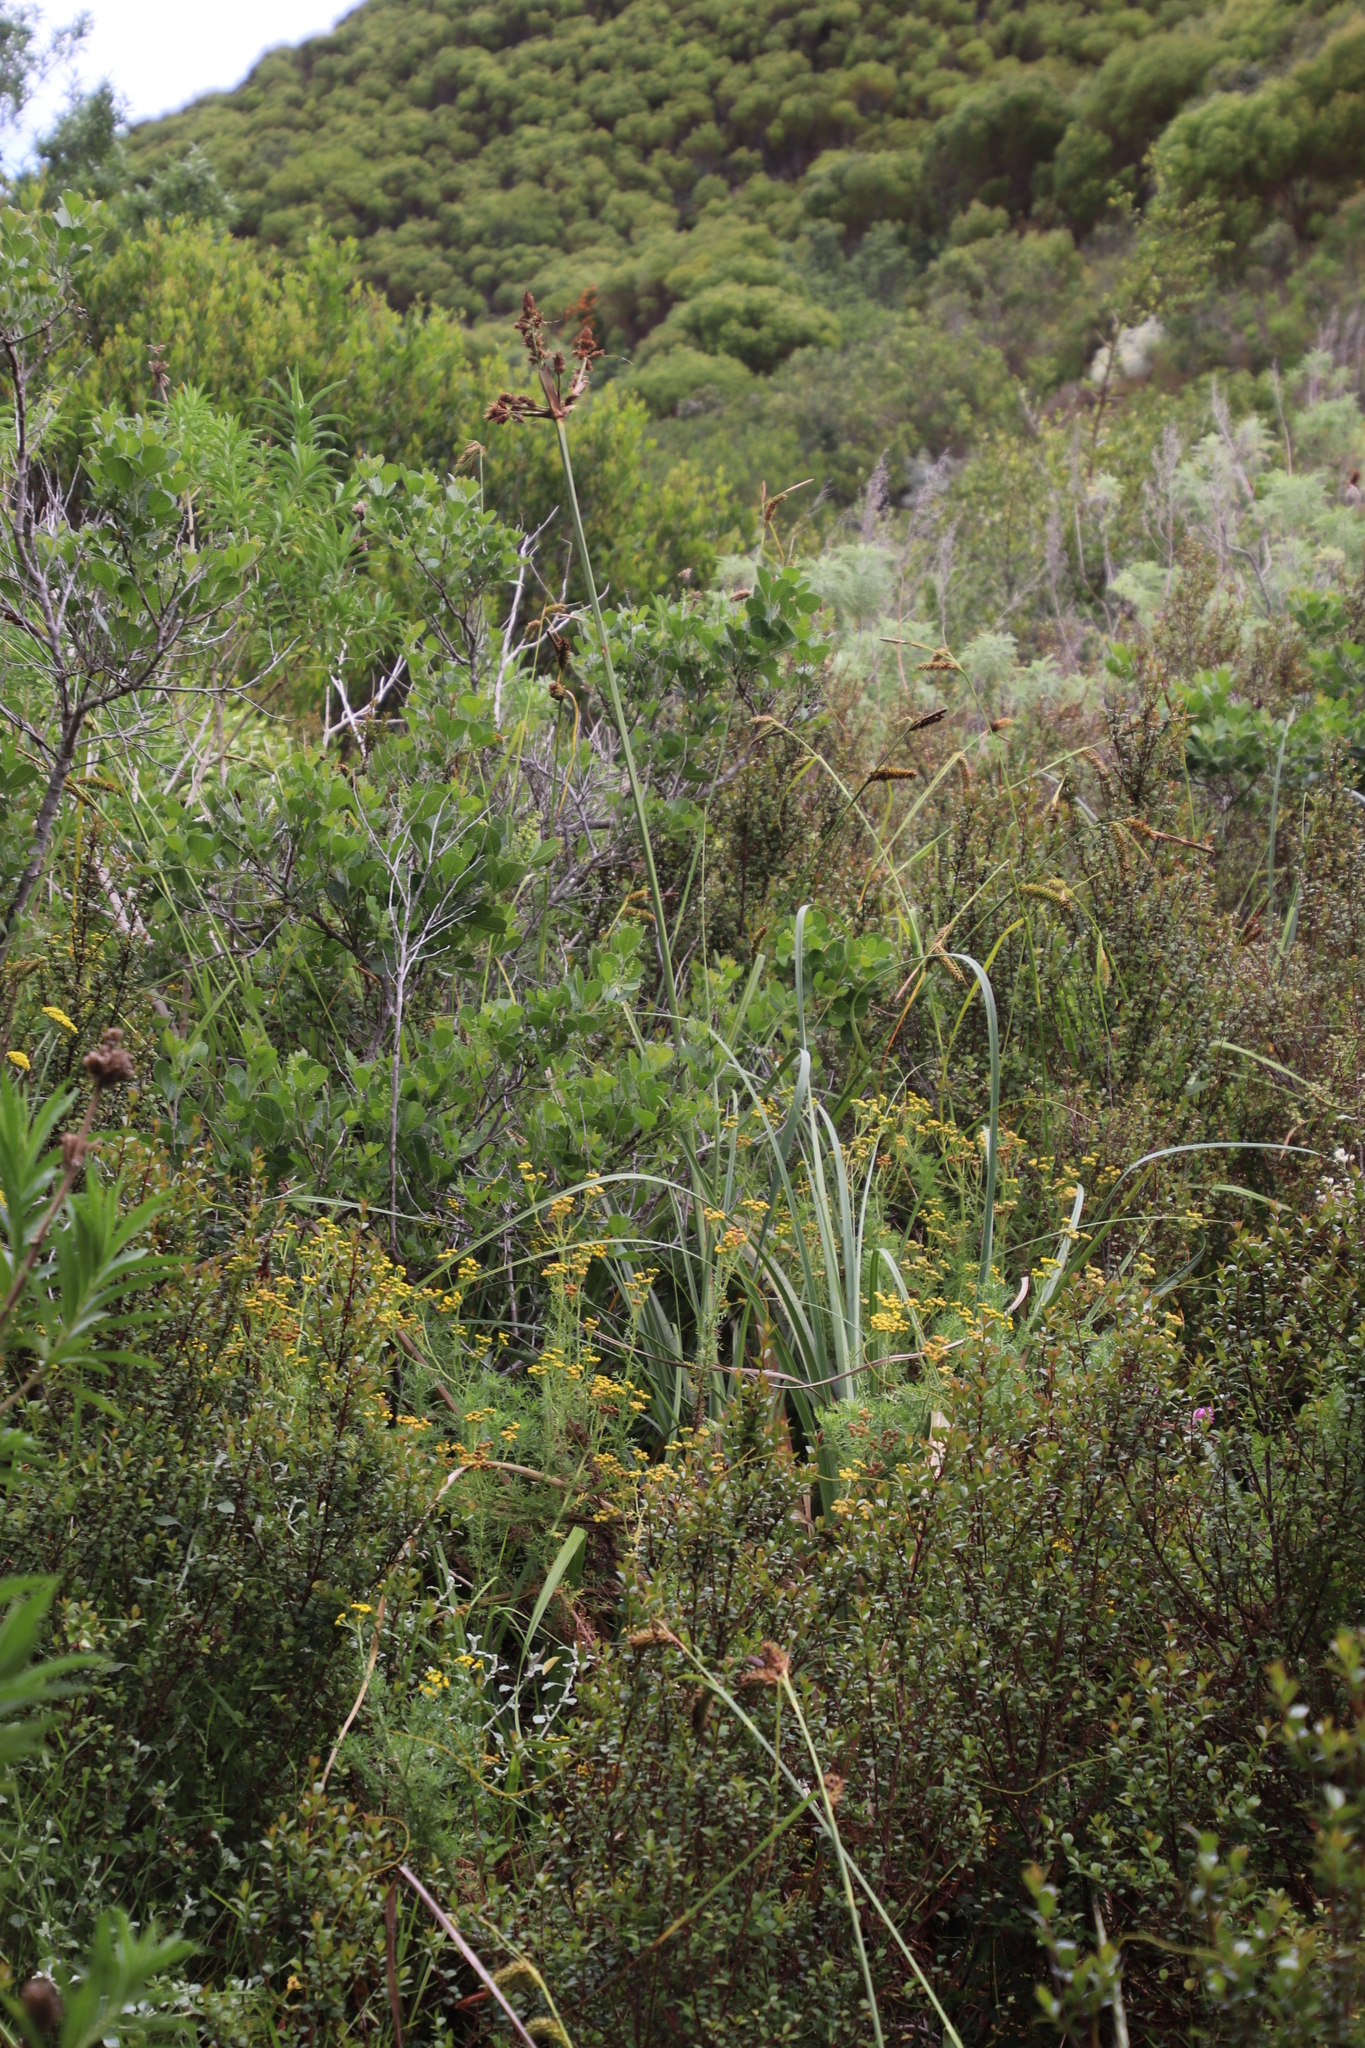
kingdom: Plantae
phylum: Tracheophyta
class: Liliopsida
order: Poales
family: Cyperaceae
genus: Cyperus
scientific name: Cyperus thunbergii
